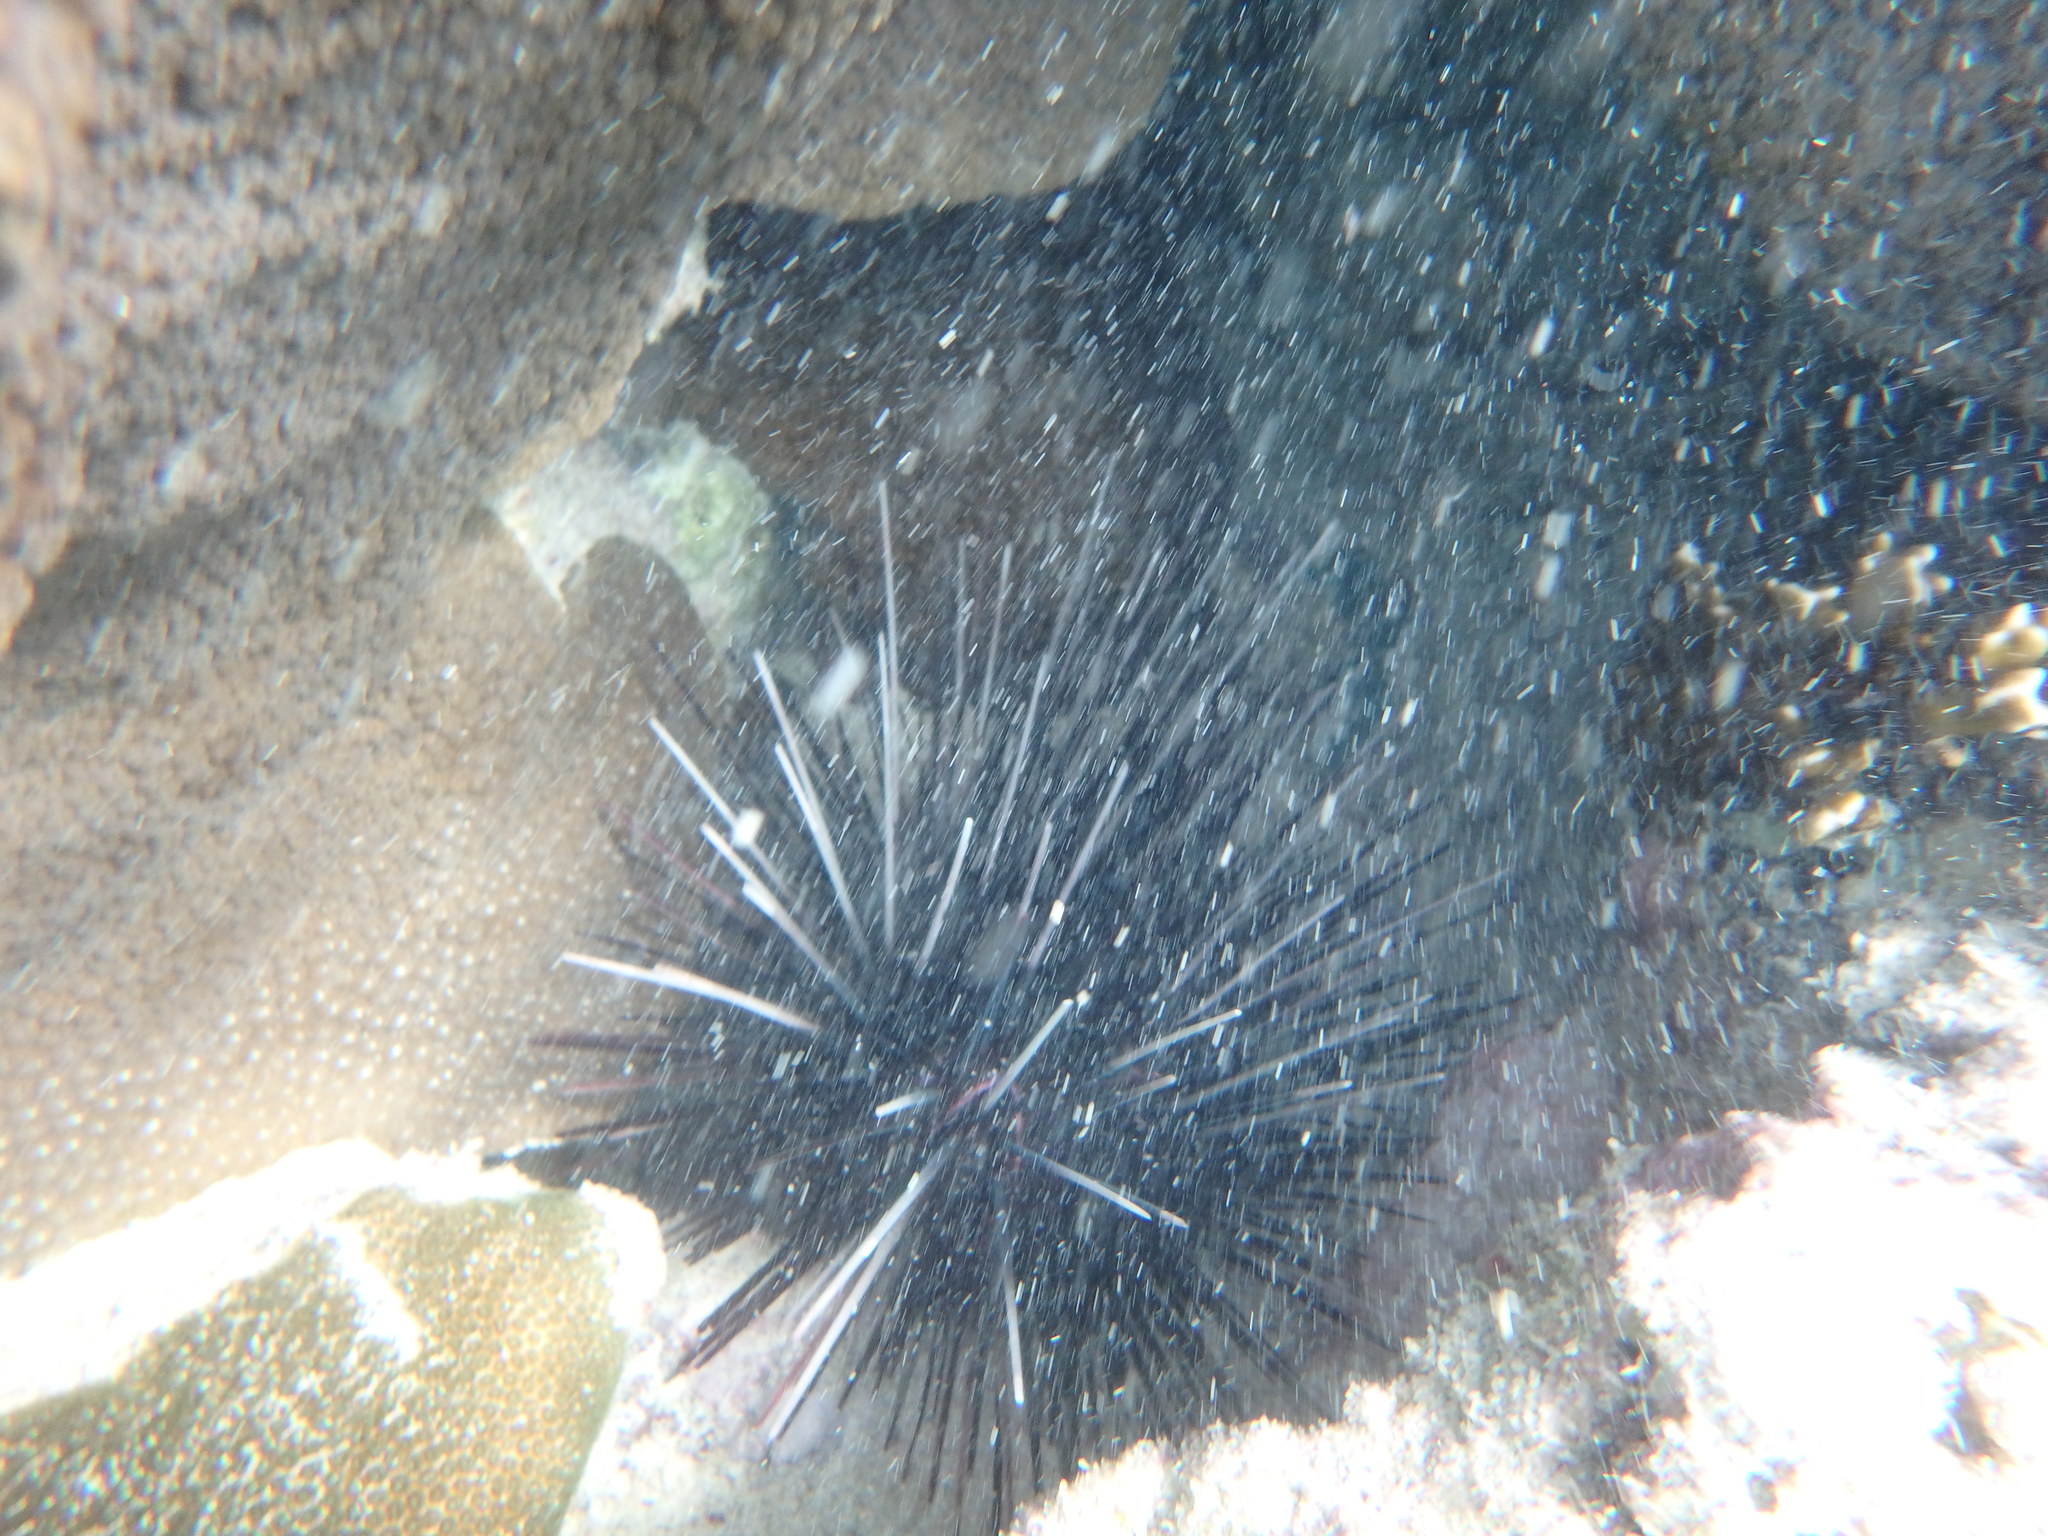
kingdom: Animalia
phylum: Echinodermata
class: Echinoidea
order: Diadematoida
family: Diadematidae
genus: Diadema
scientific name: Diadema antillarum
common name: Spiny urchin
